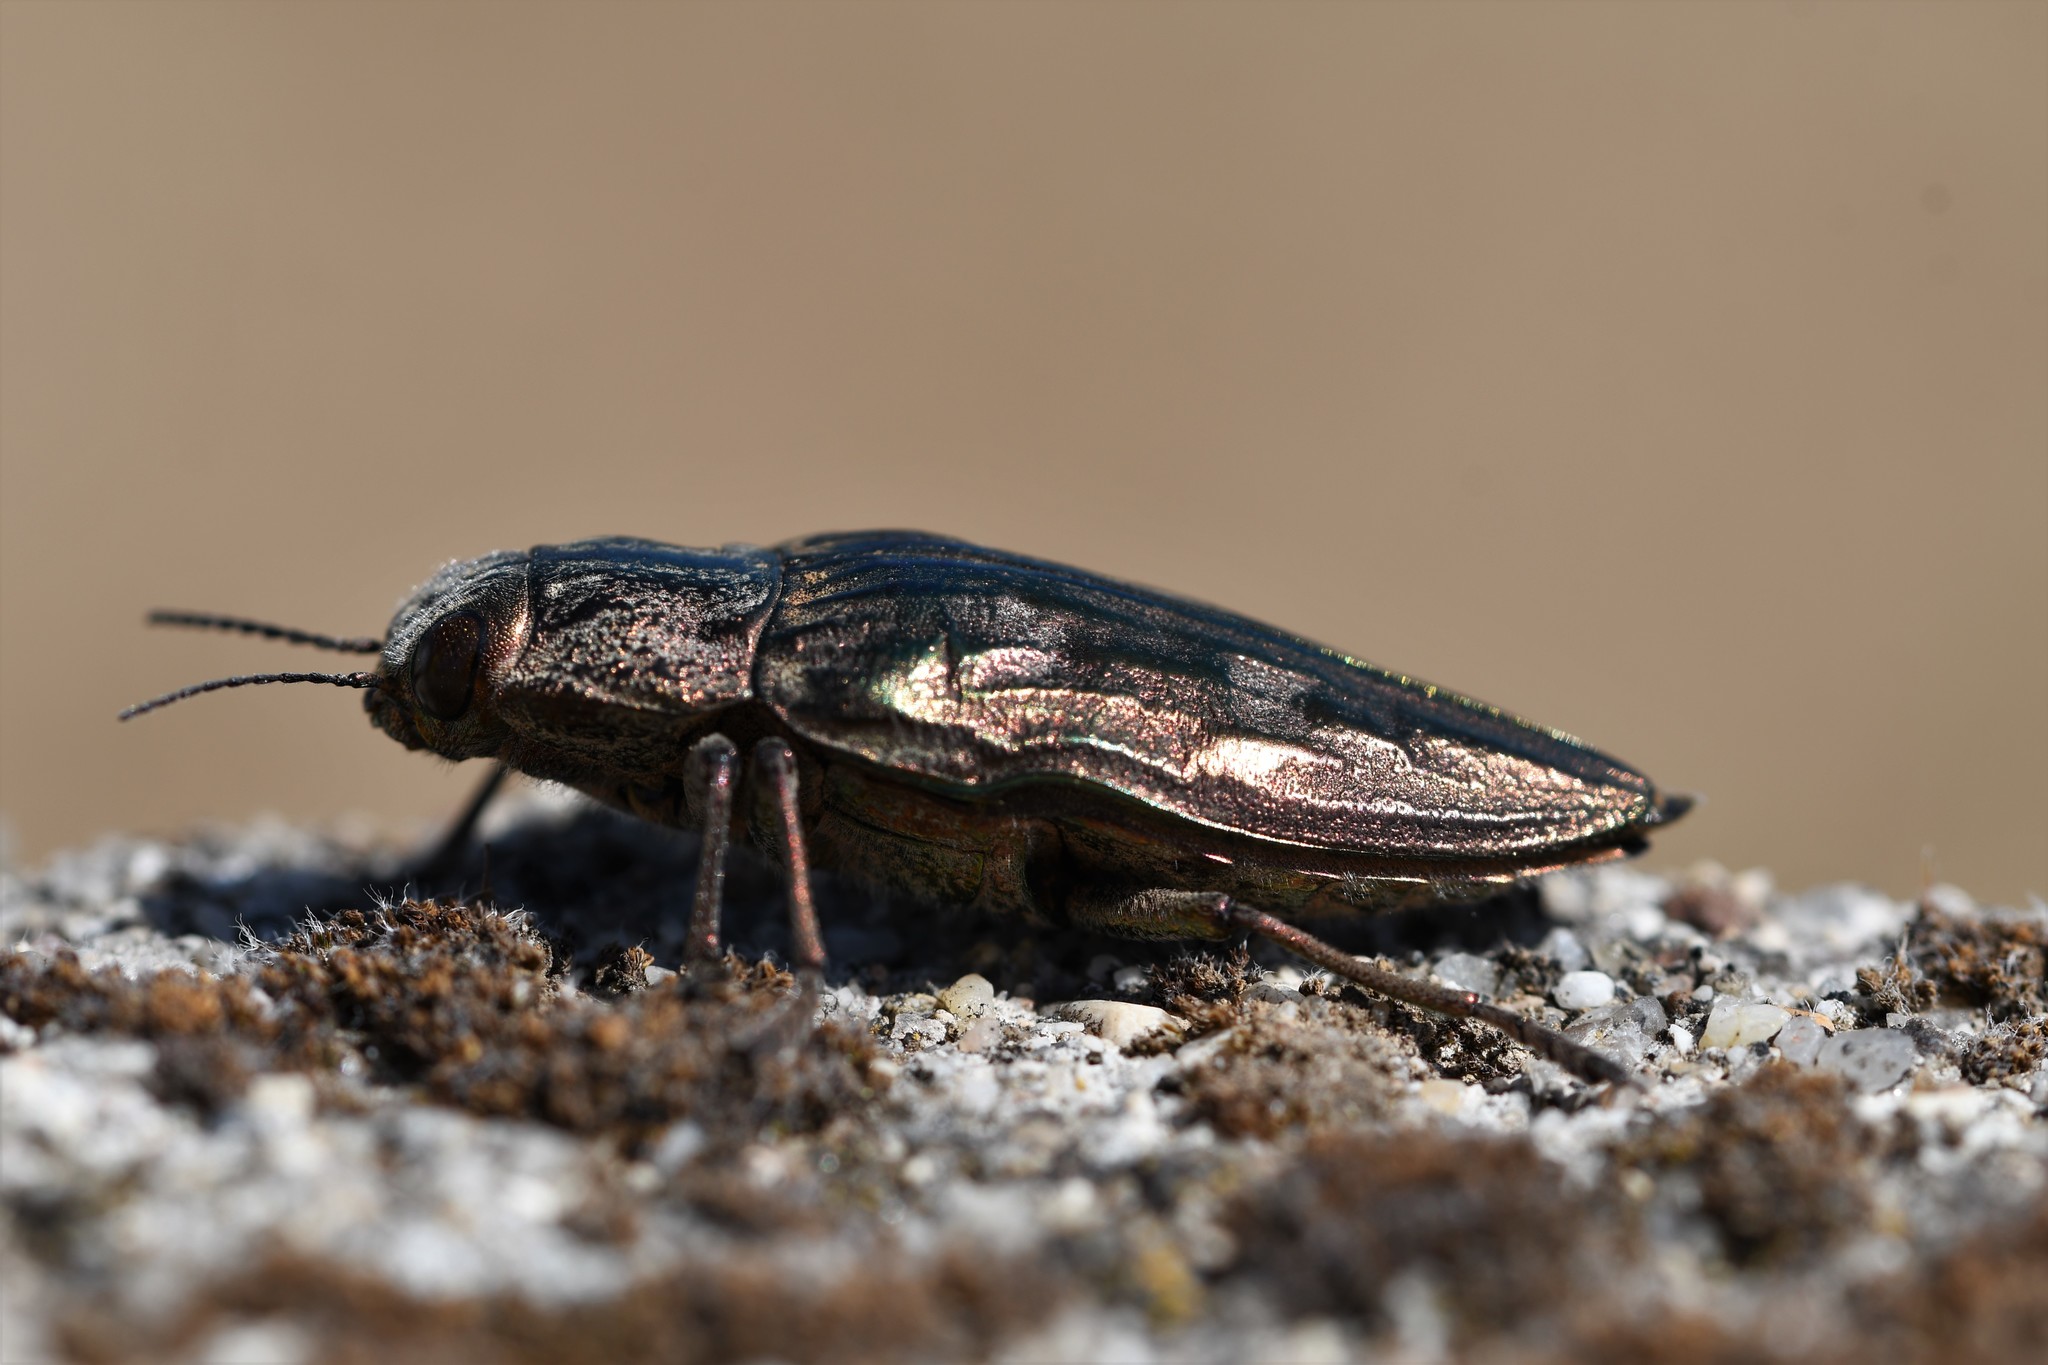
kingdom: Animalia
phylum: Arthropoda
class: Insecta
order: Coleoptera
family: Buprestidae
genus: Chalcophora
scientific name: Chalcophora massiliensis
